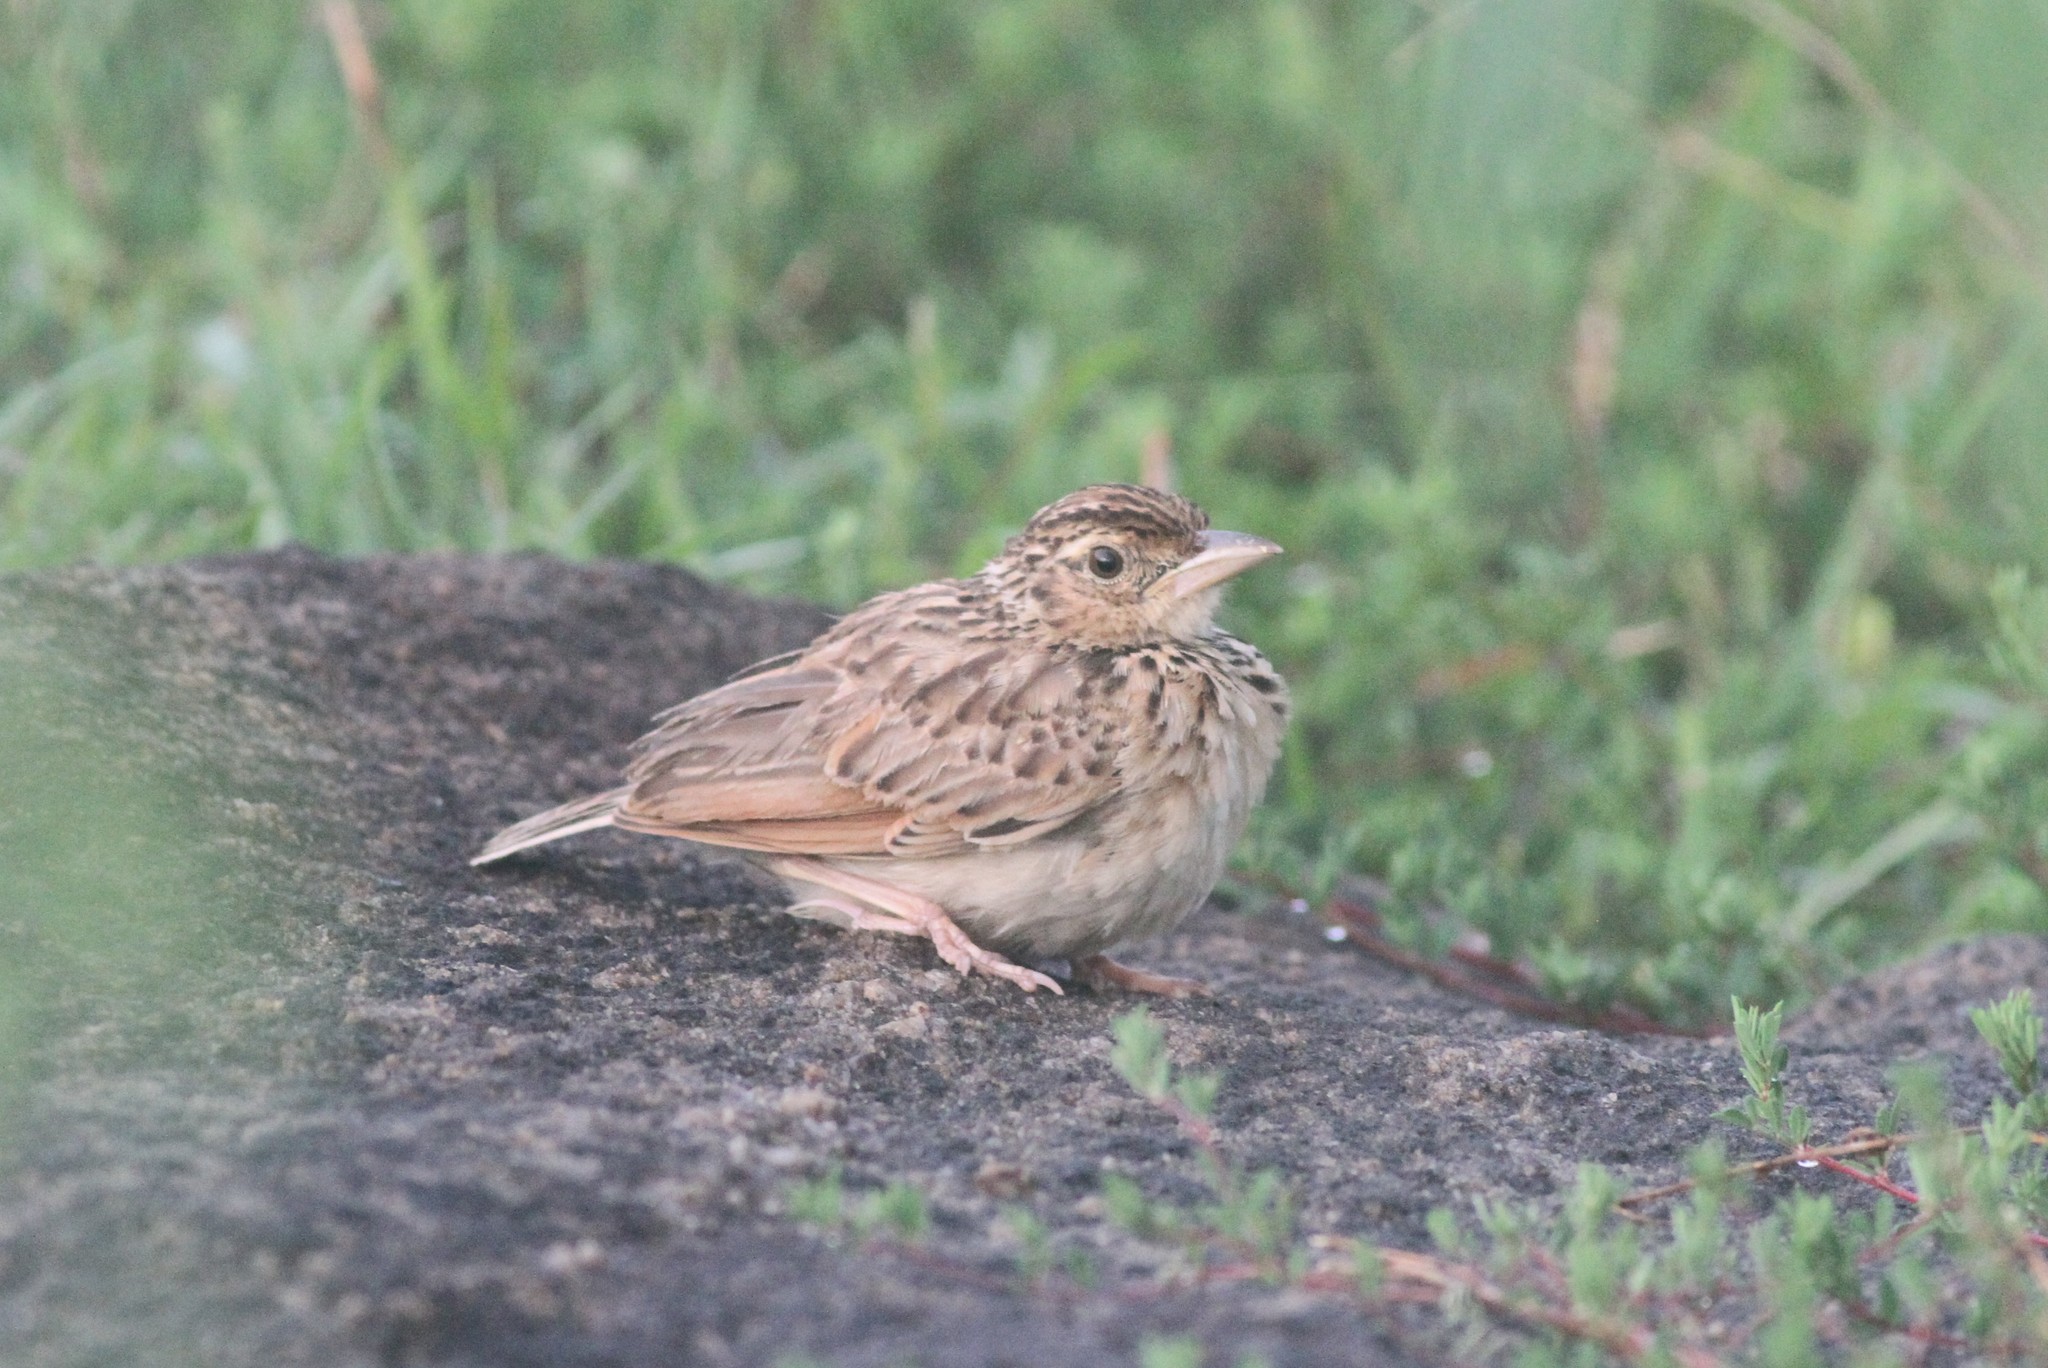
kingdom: Animalia
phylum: Chordata
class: Aves
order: Passeriformes
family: Alaudidae
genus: Mirafra
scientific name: Mirafra affinis
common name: Jerdon's bushlark
